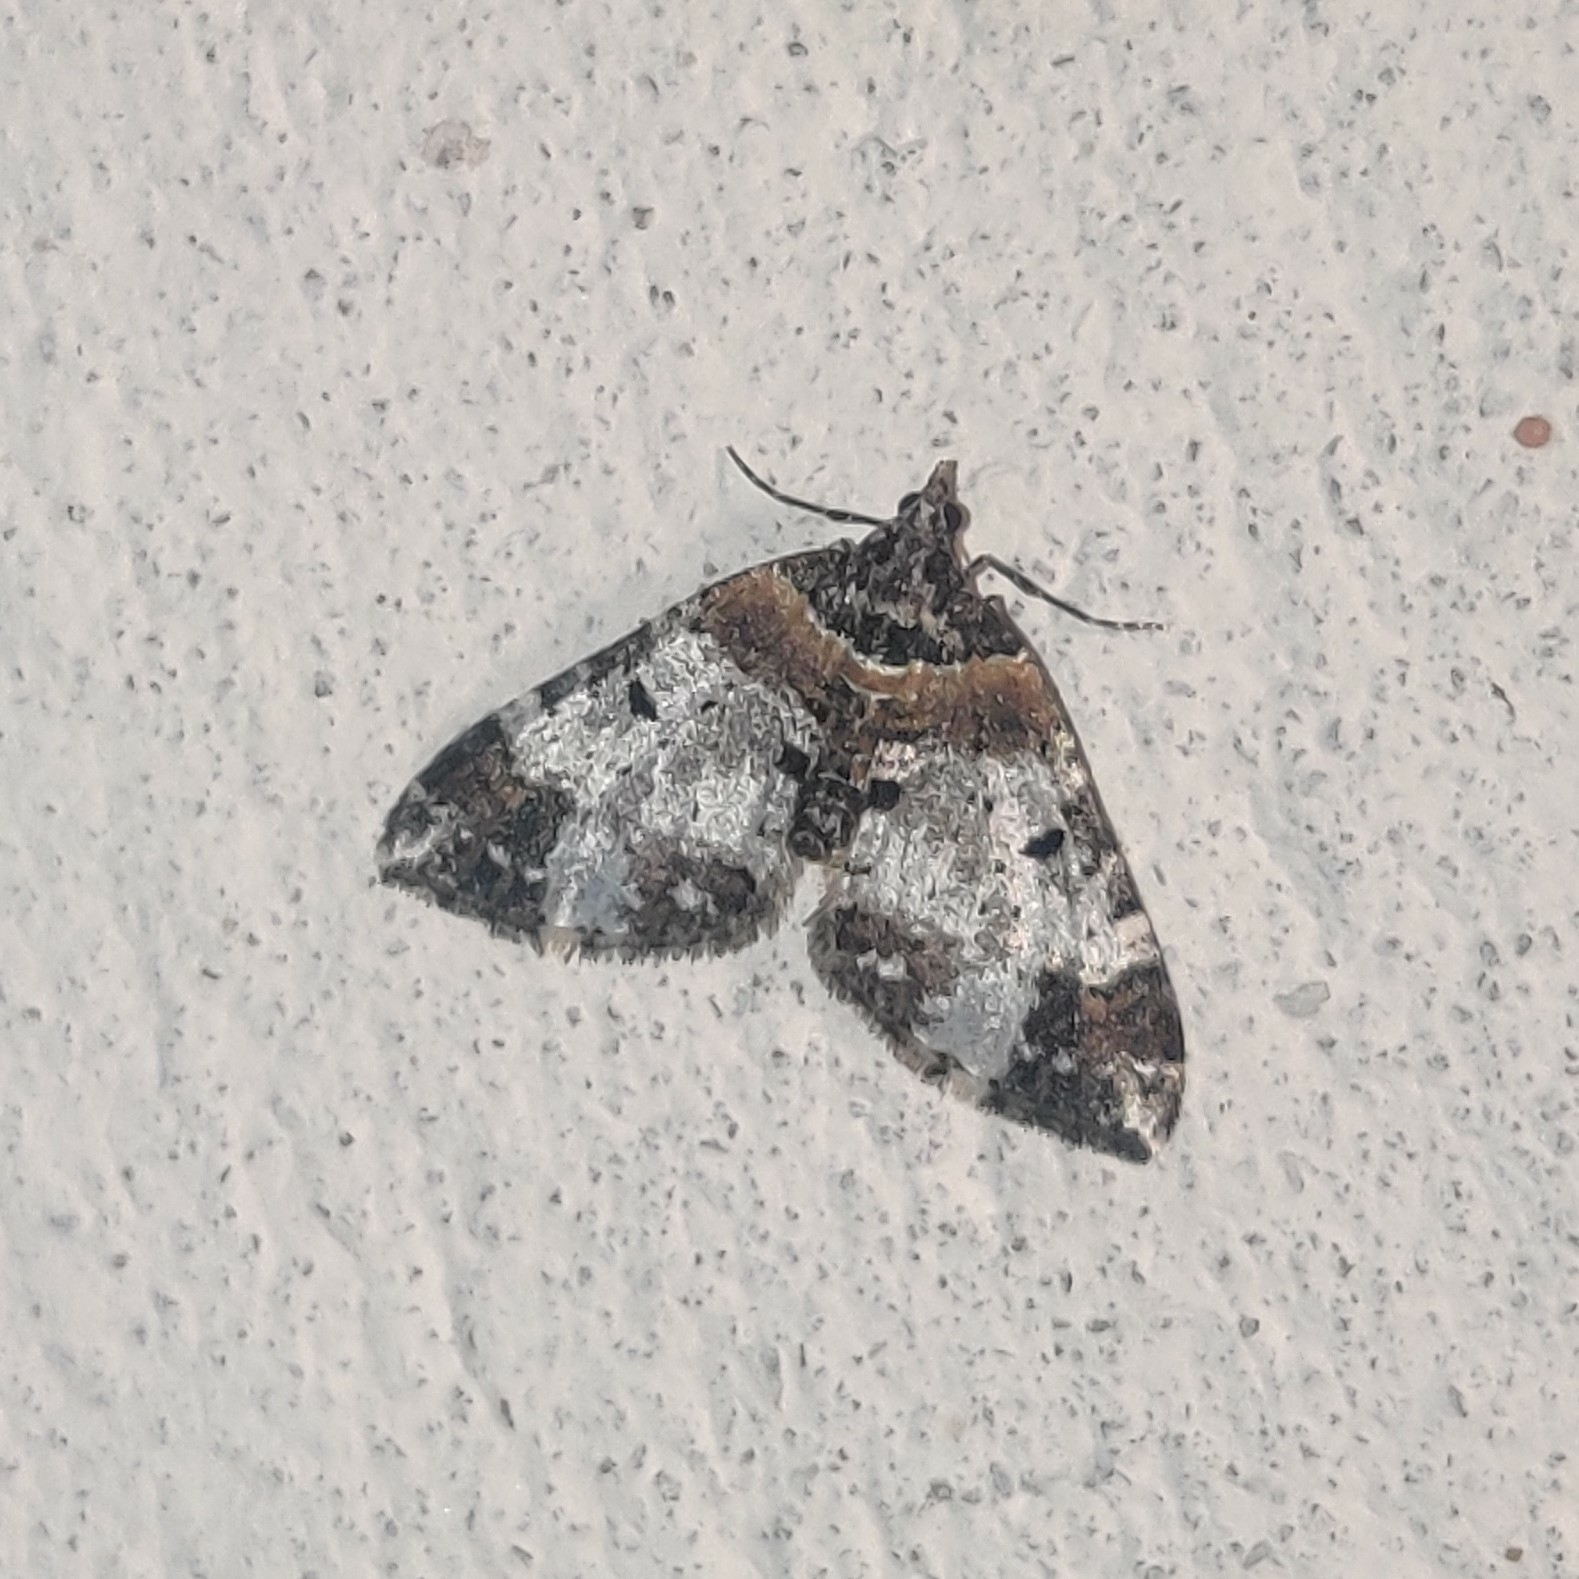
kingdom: Animalia
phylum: Arthropoda
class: Insecta
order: Lepidoptera
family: Geometridae
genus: Melanthia
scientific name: Melanthia catenaria
